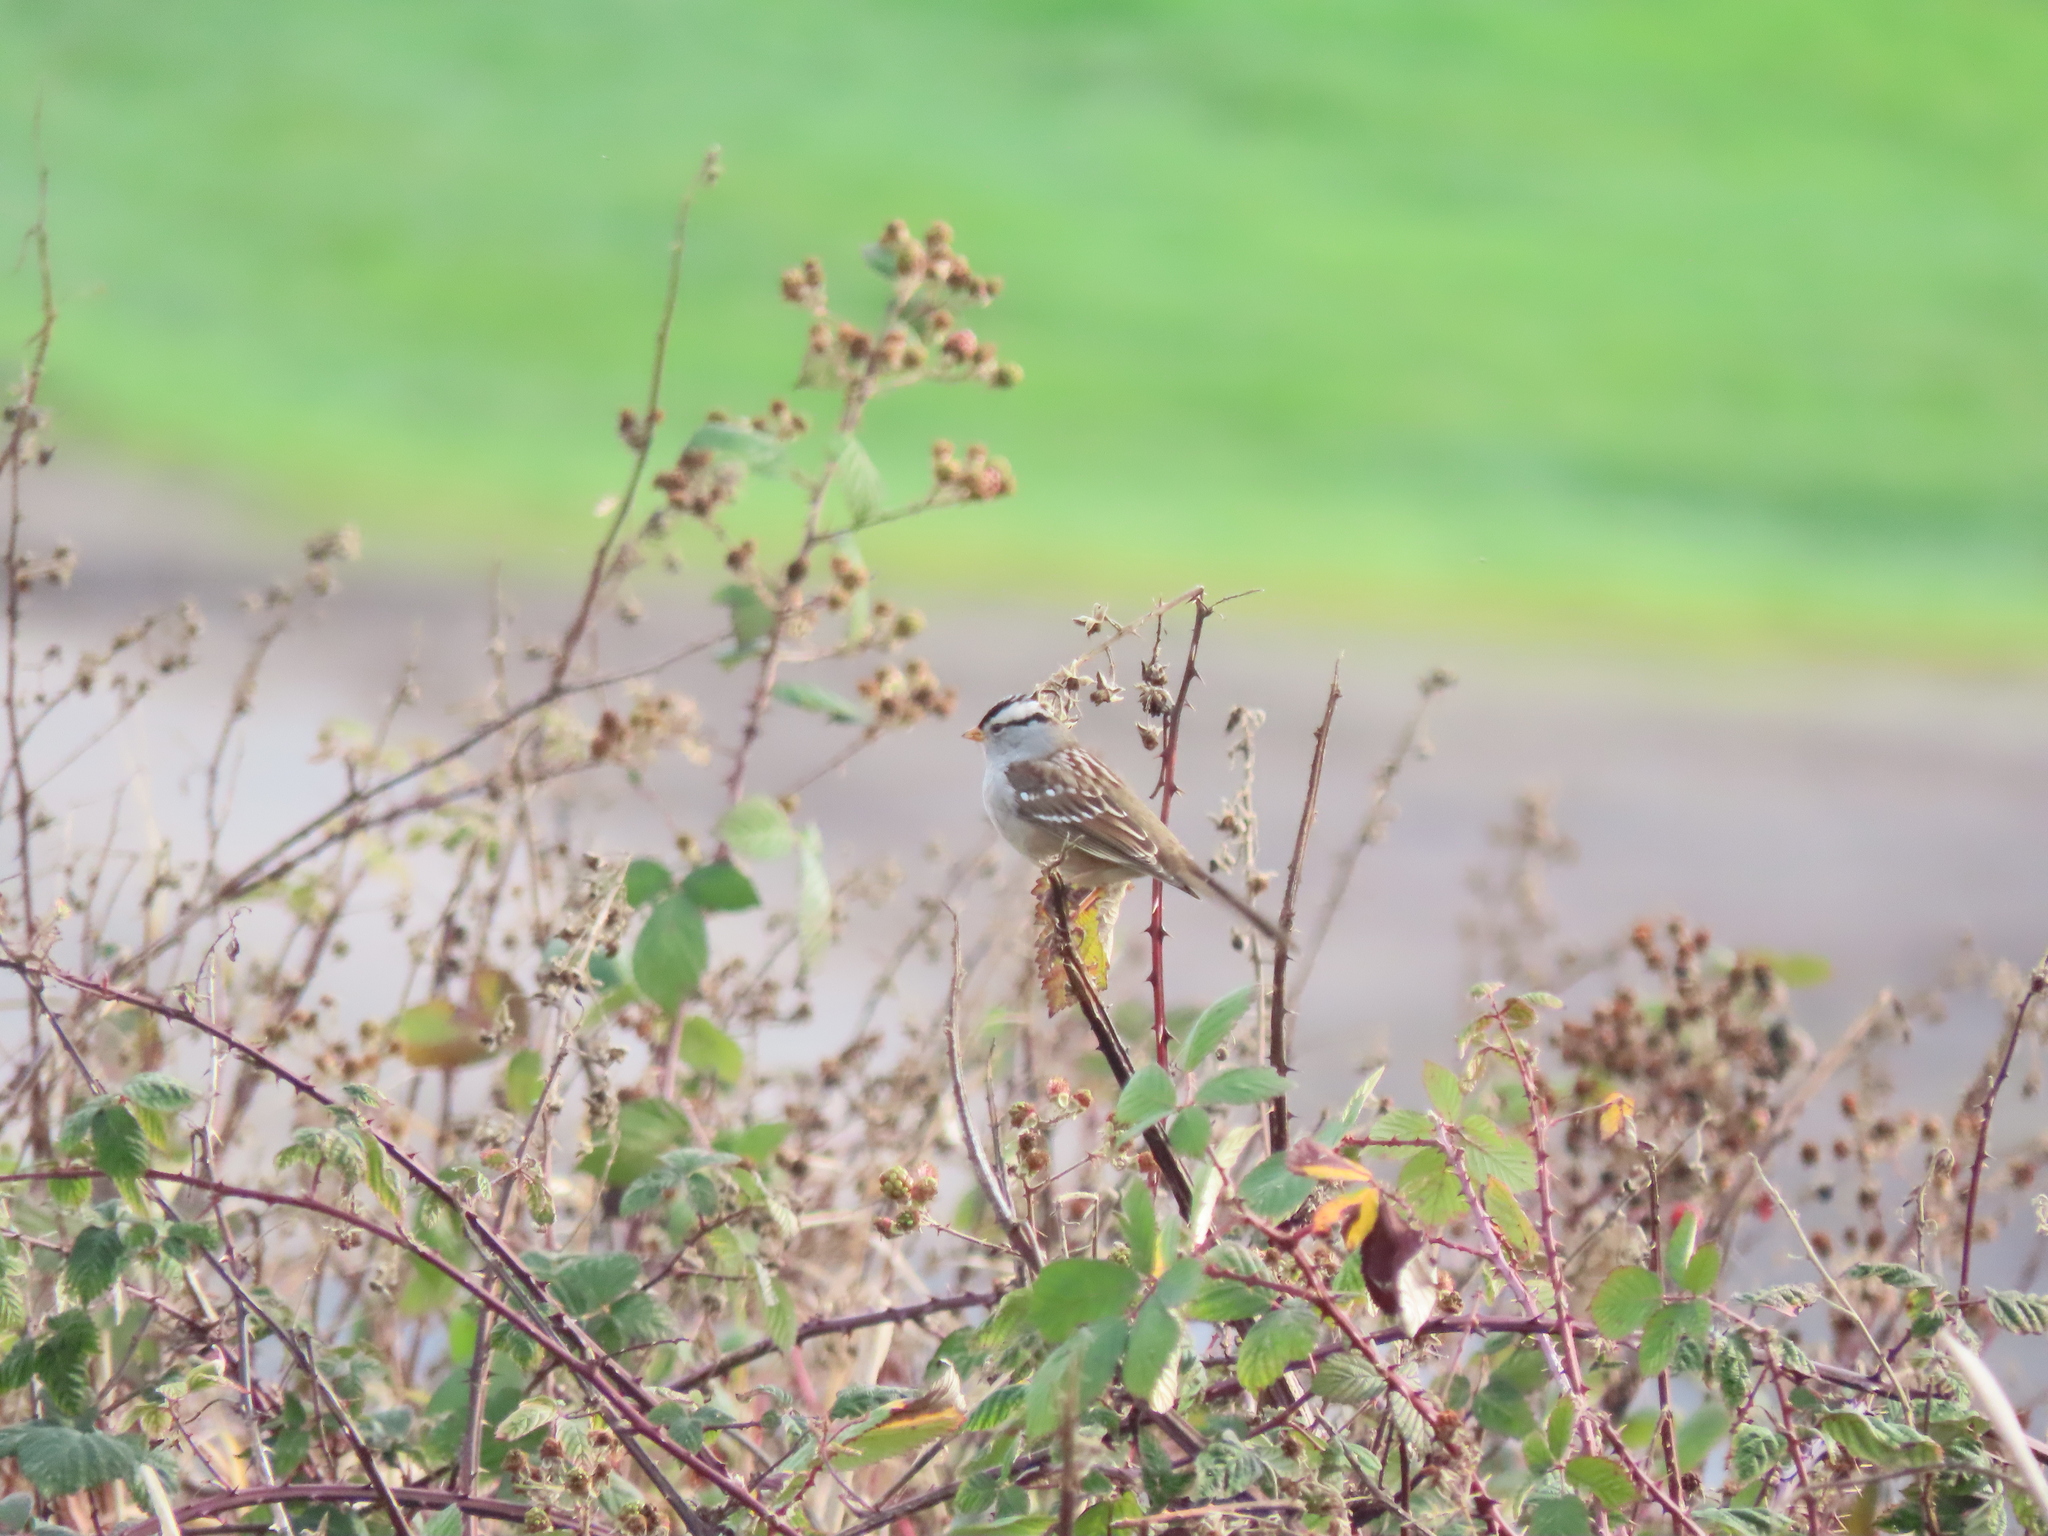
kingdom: Animalia
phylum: Chordata
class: Aves
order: Passeriformes
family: Passerellidae
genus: Zonotrichia
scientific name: Zonotrichia leucophrys
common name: White-crowned sparrow
